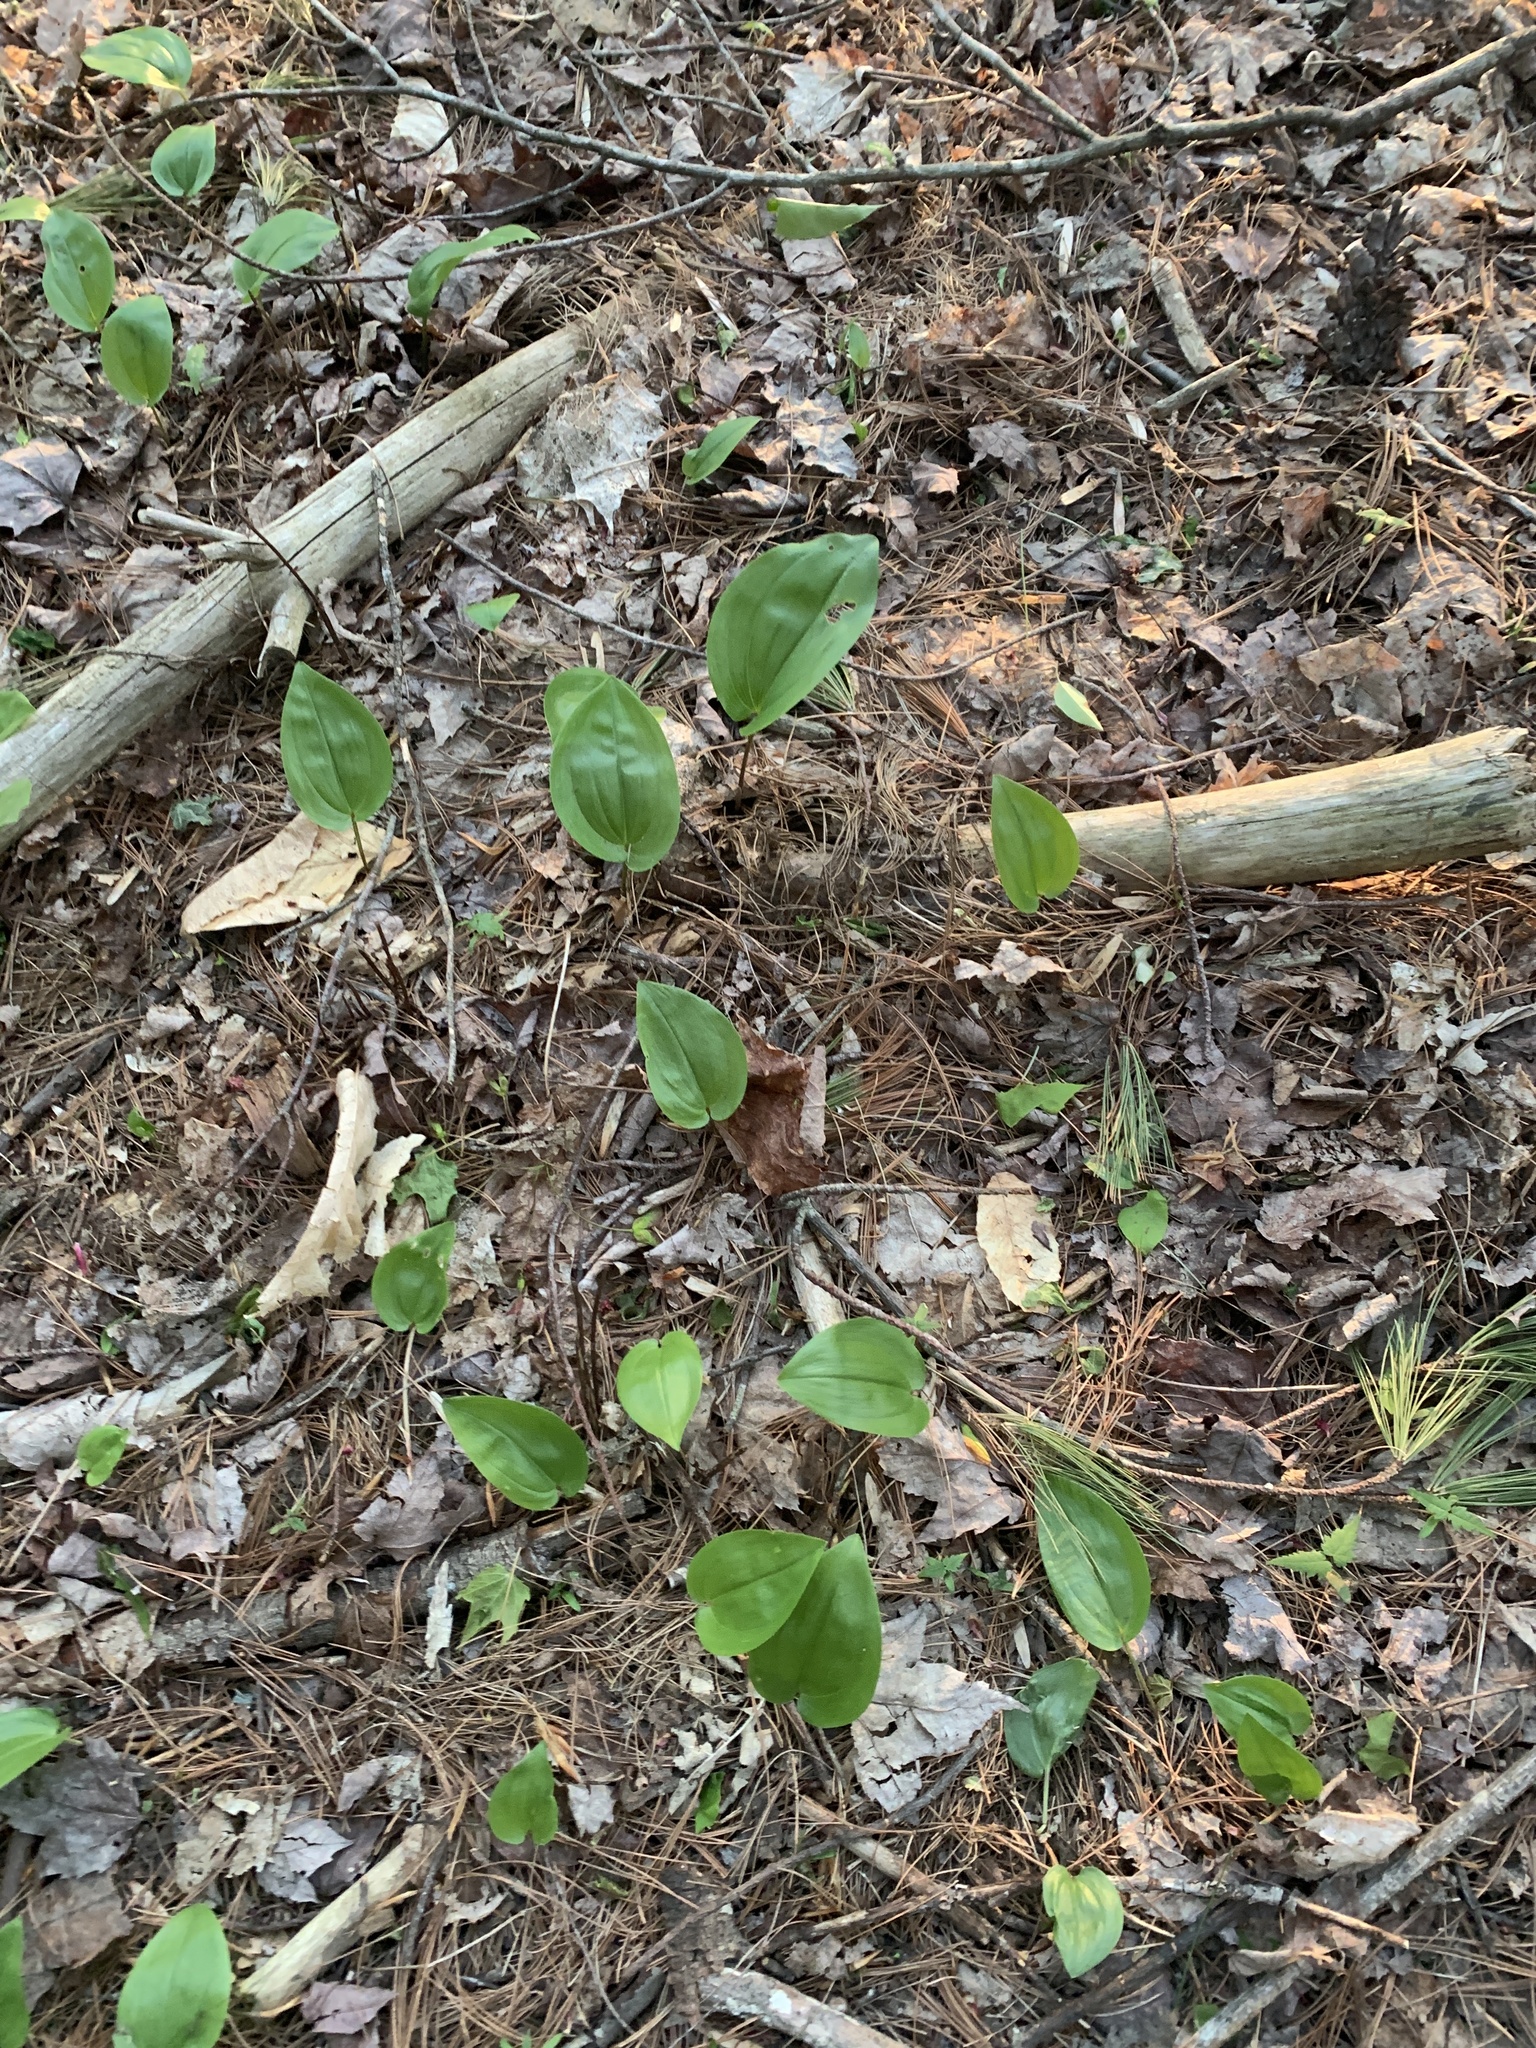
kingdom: Plantae
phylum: Tracheophyta
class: Liliopsida
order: Asparagales
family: Asparagaceae
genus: Maianthemum
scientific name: Maianthemum canadense
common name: False lily-of-the-valley
